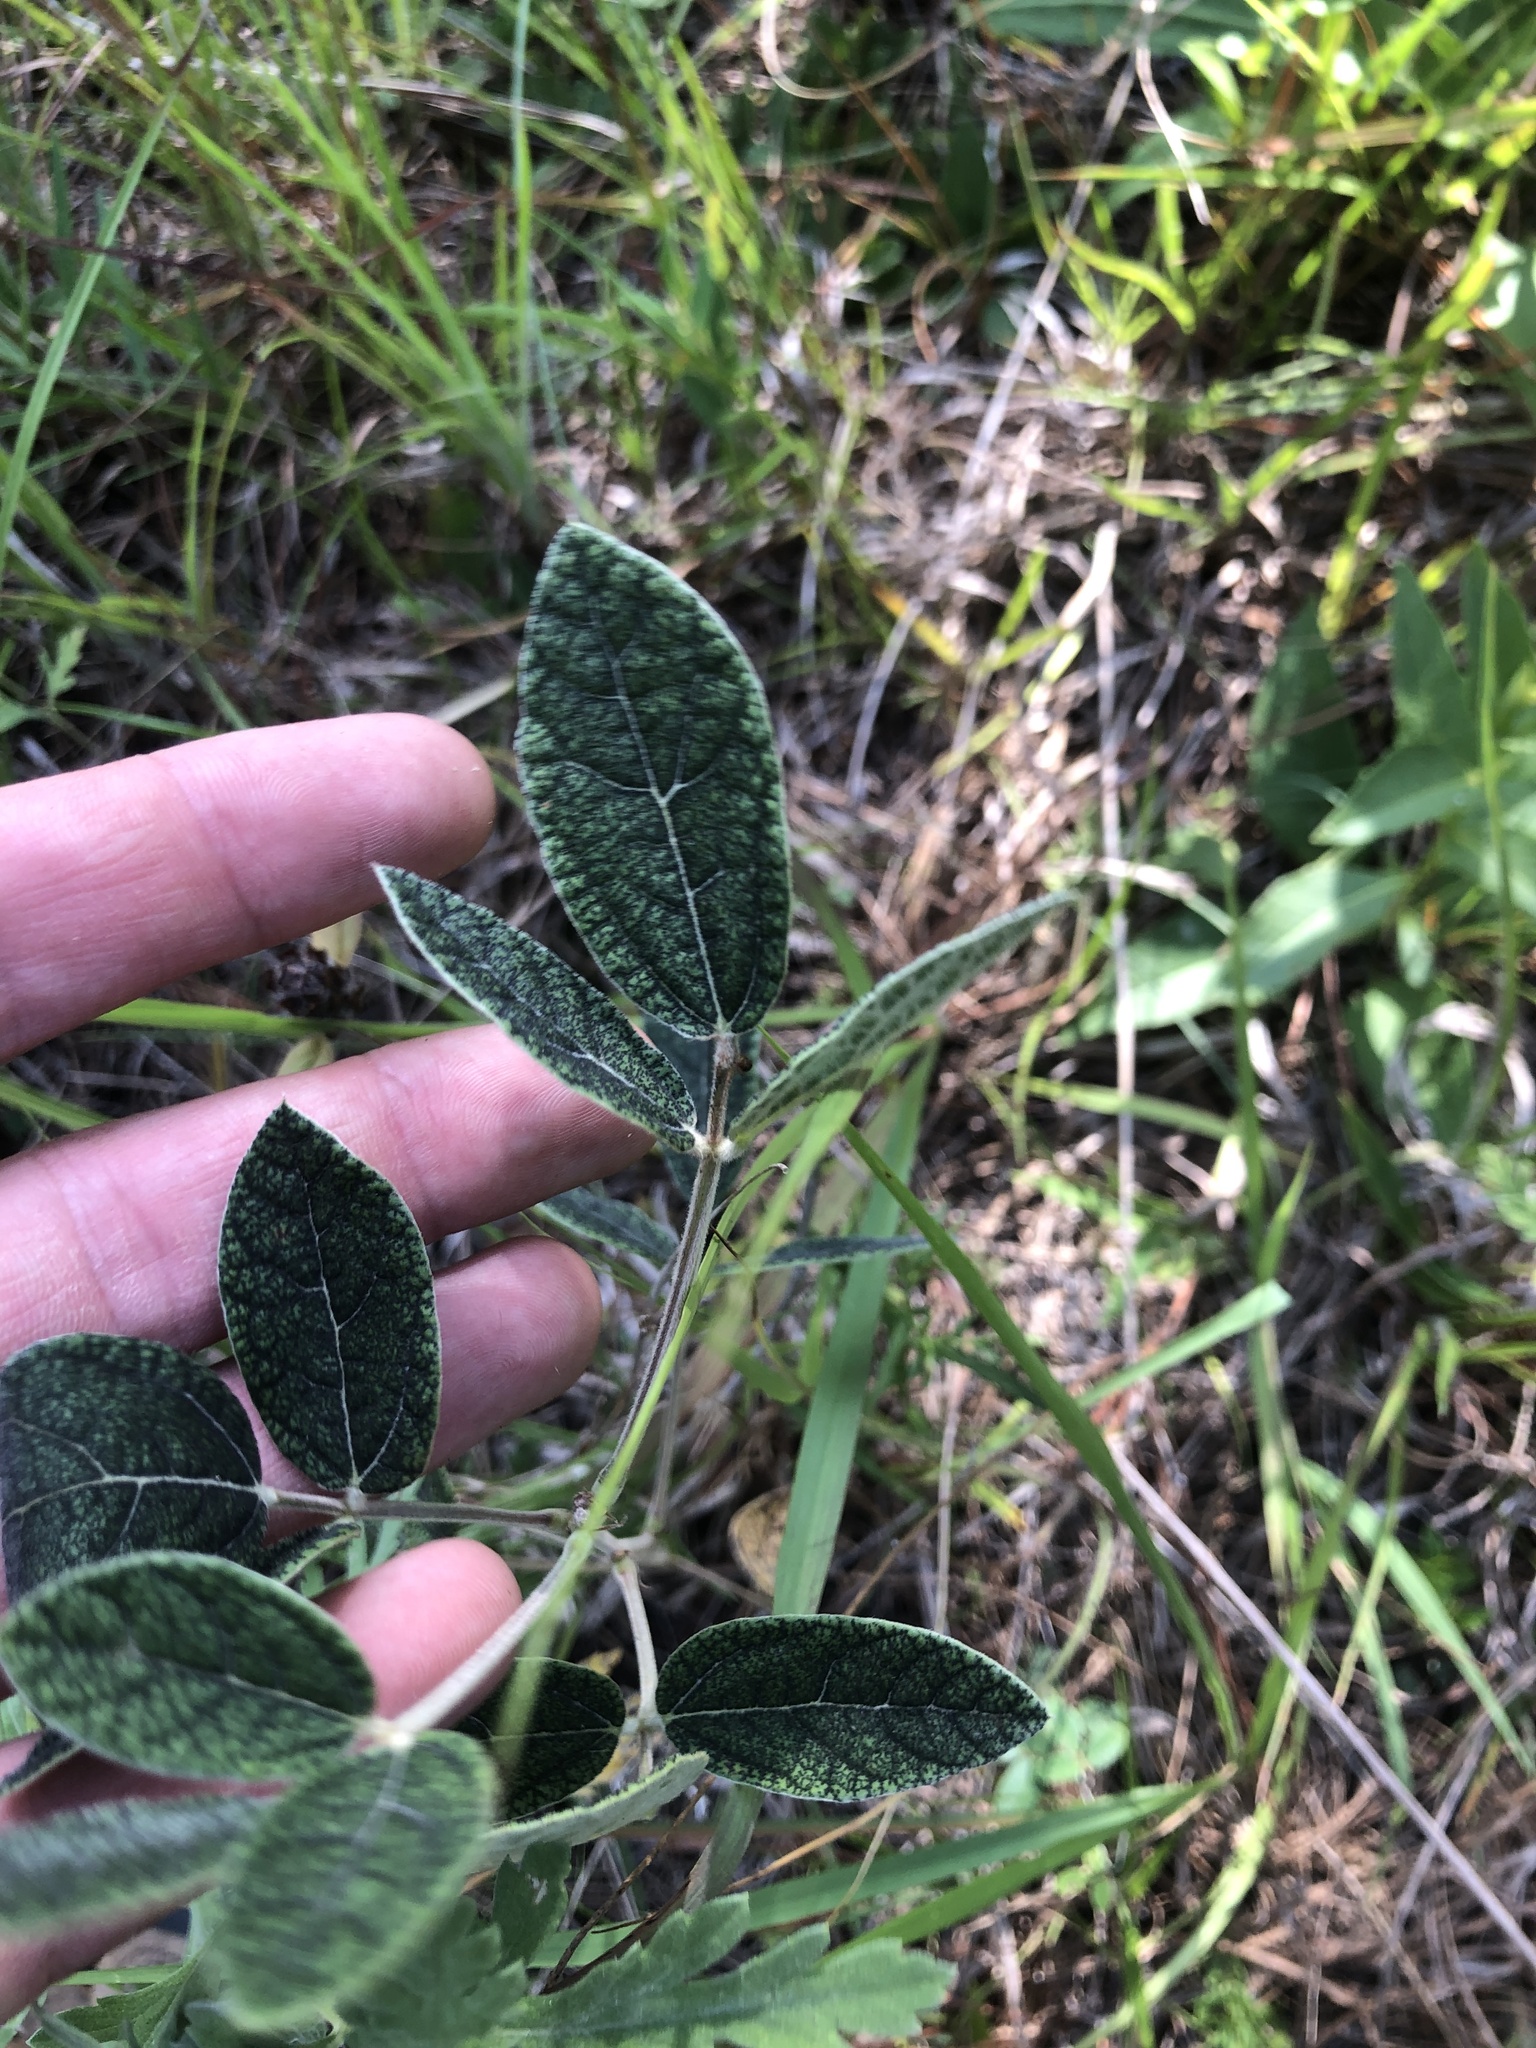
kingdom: Plantae
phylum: Tracheophyta
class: Magnoliopsida
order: Fabales
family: Fabaceae
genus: Rhynchosia
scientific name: Rhynchosia tomentosa
